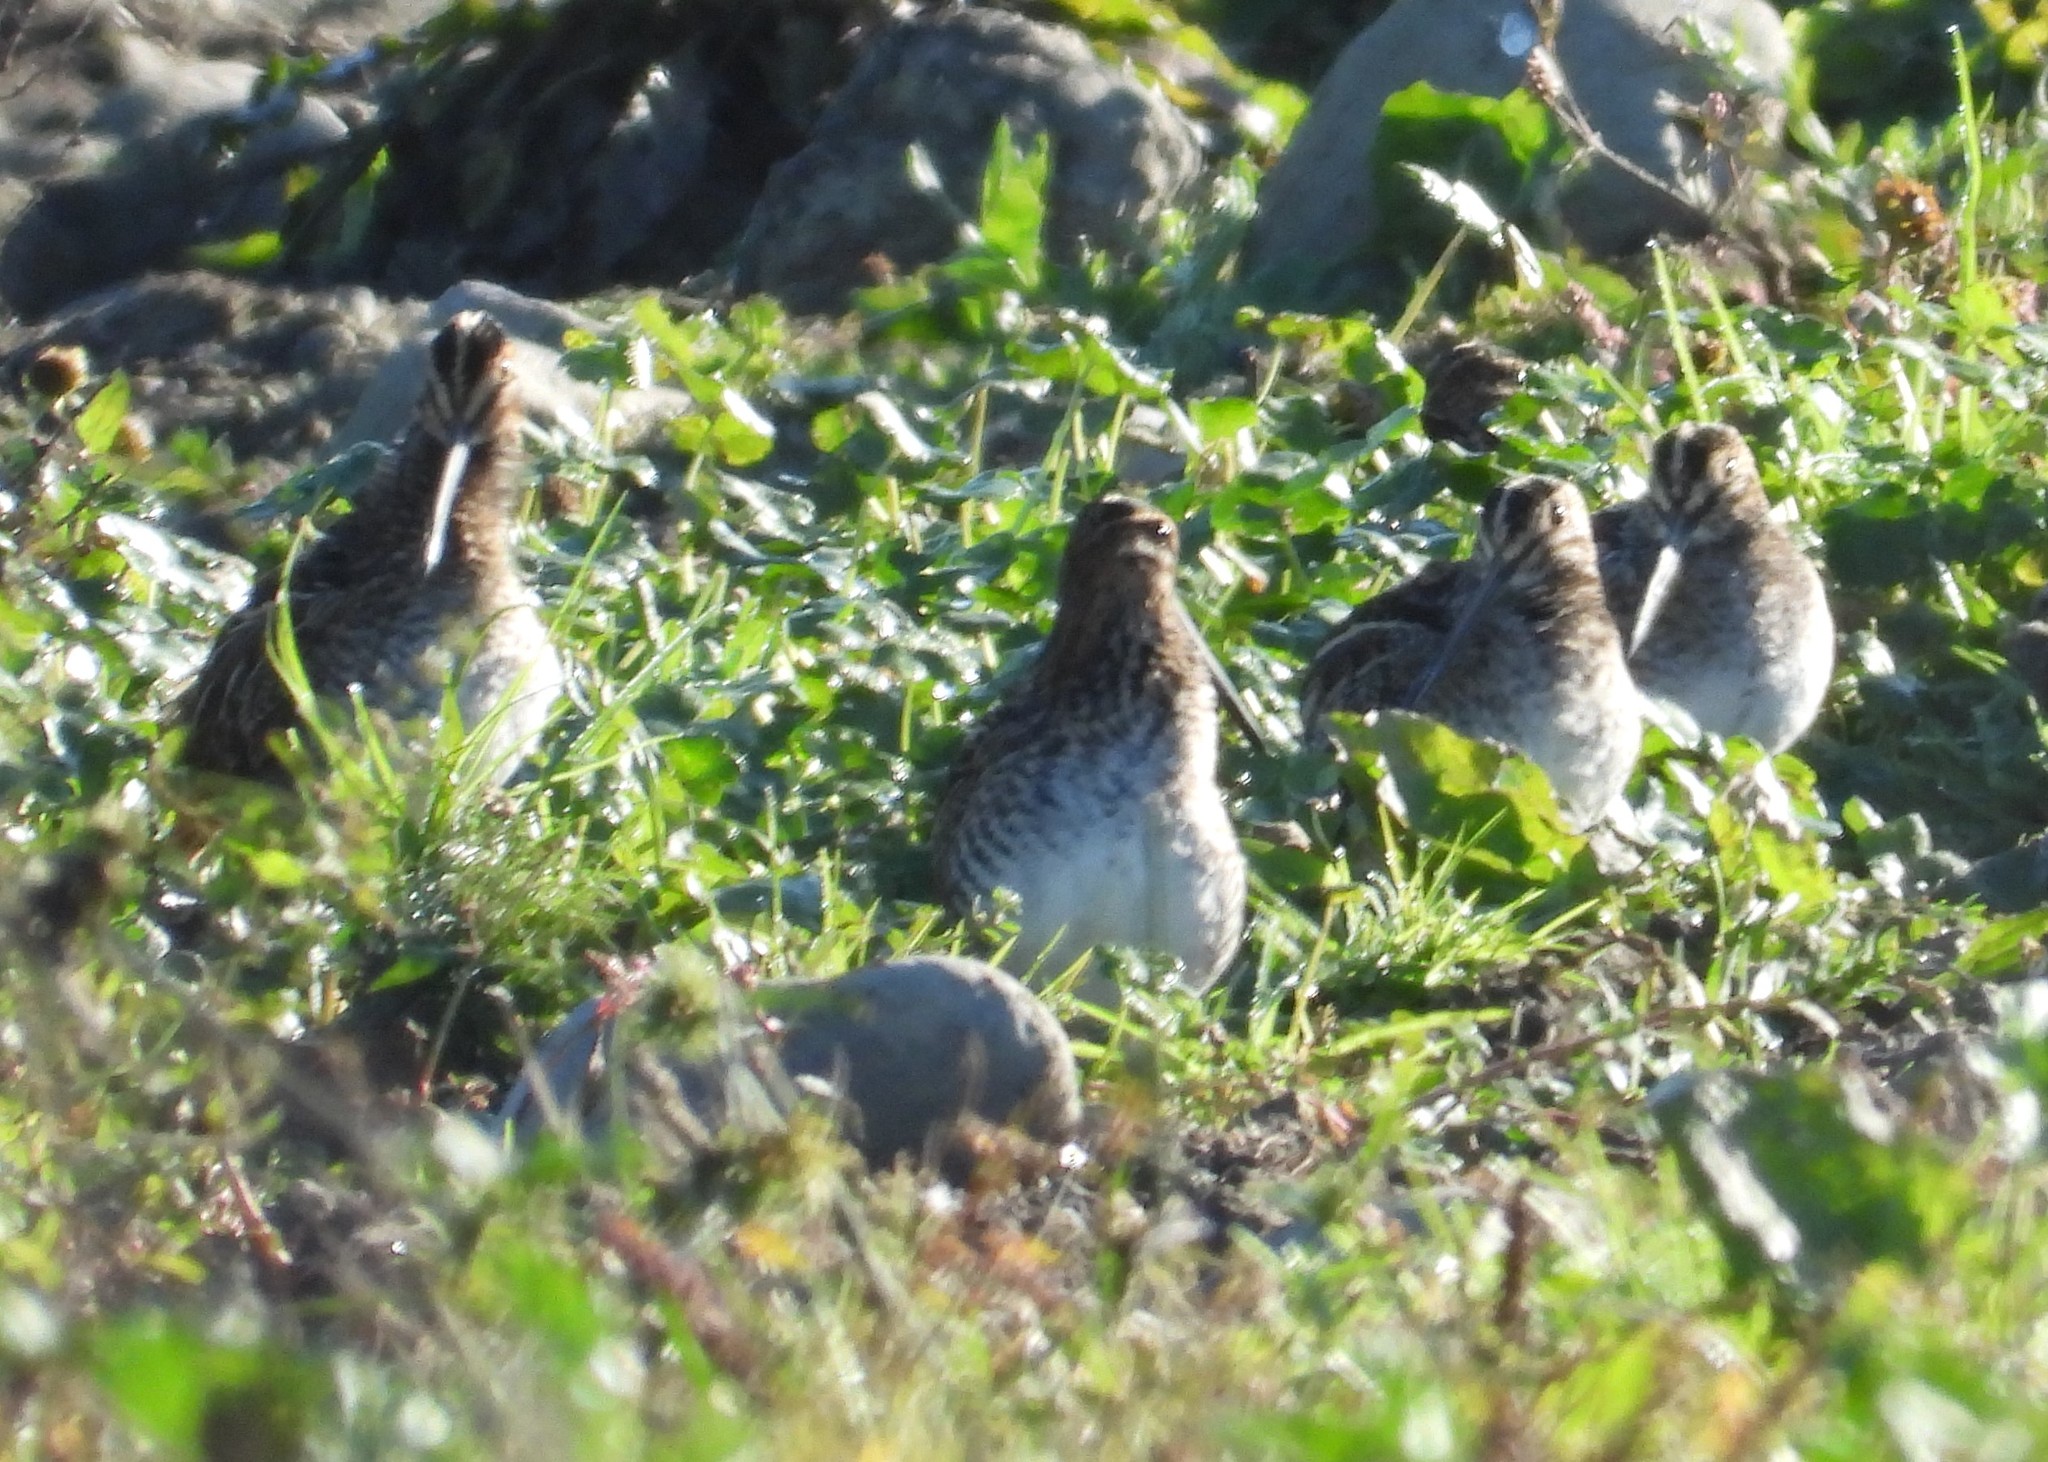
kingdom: Animalia
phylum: Chordata
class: Aves
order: Charadriiformes
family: Scolopacidae
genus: Gallinago
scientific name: Gallinago delicata
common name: Wilson's snipe
